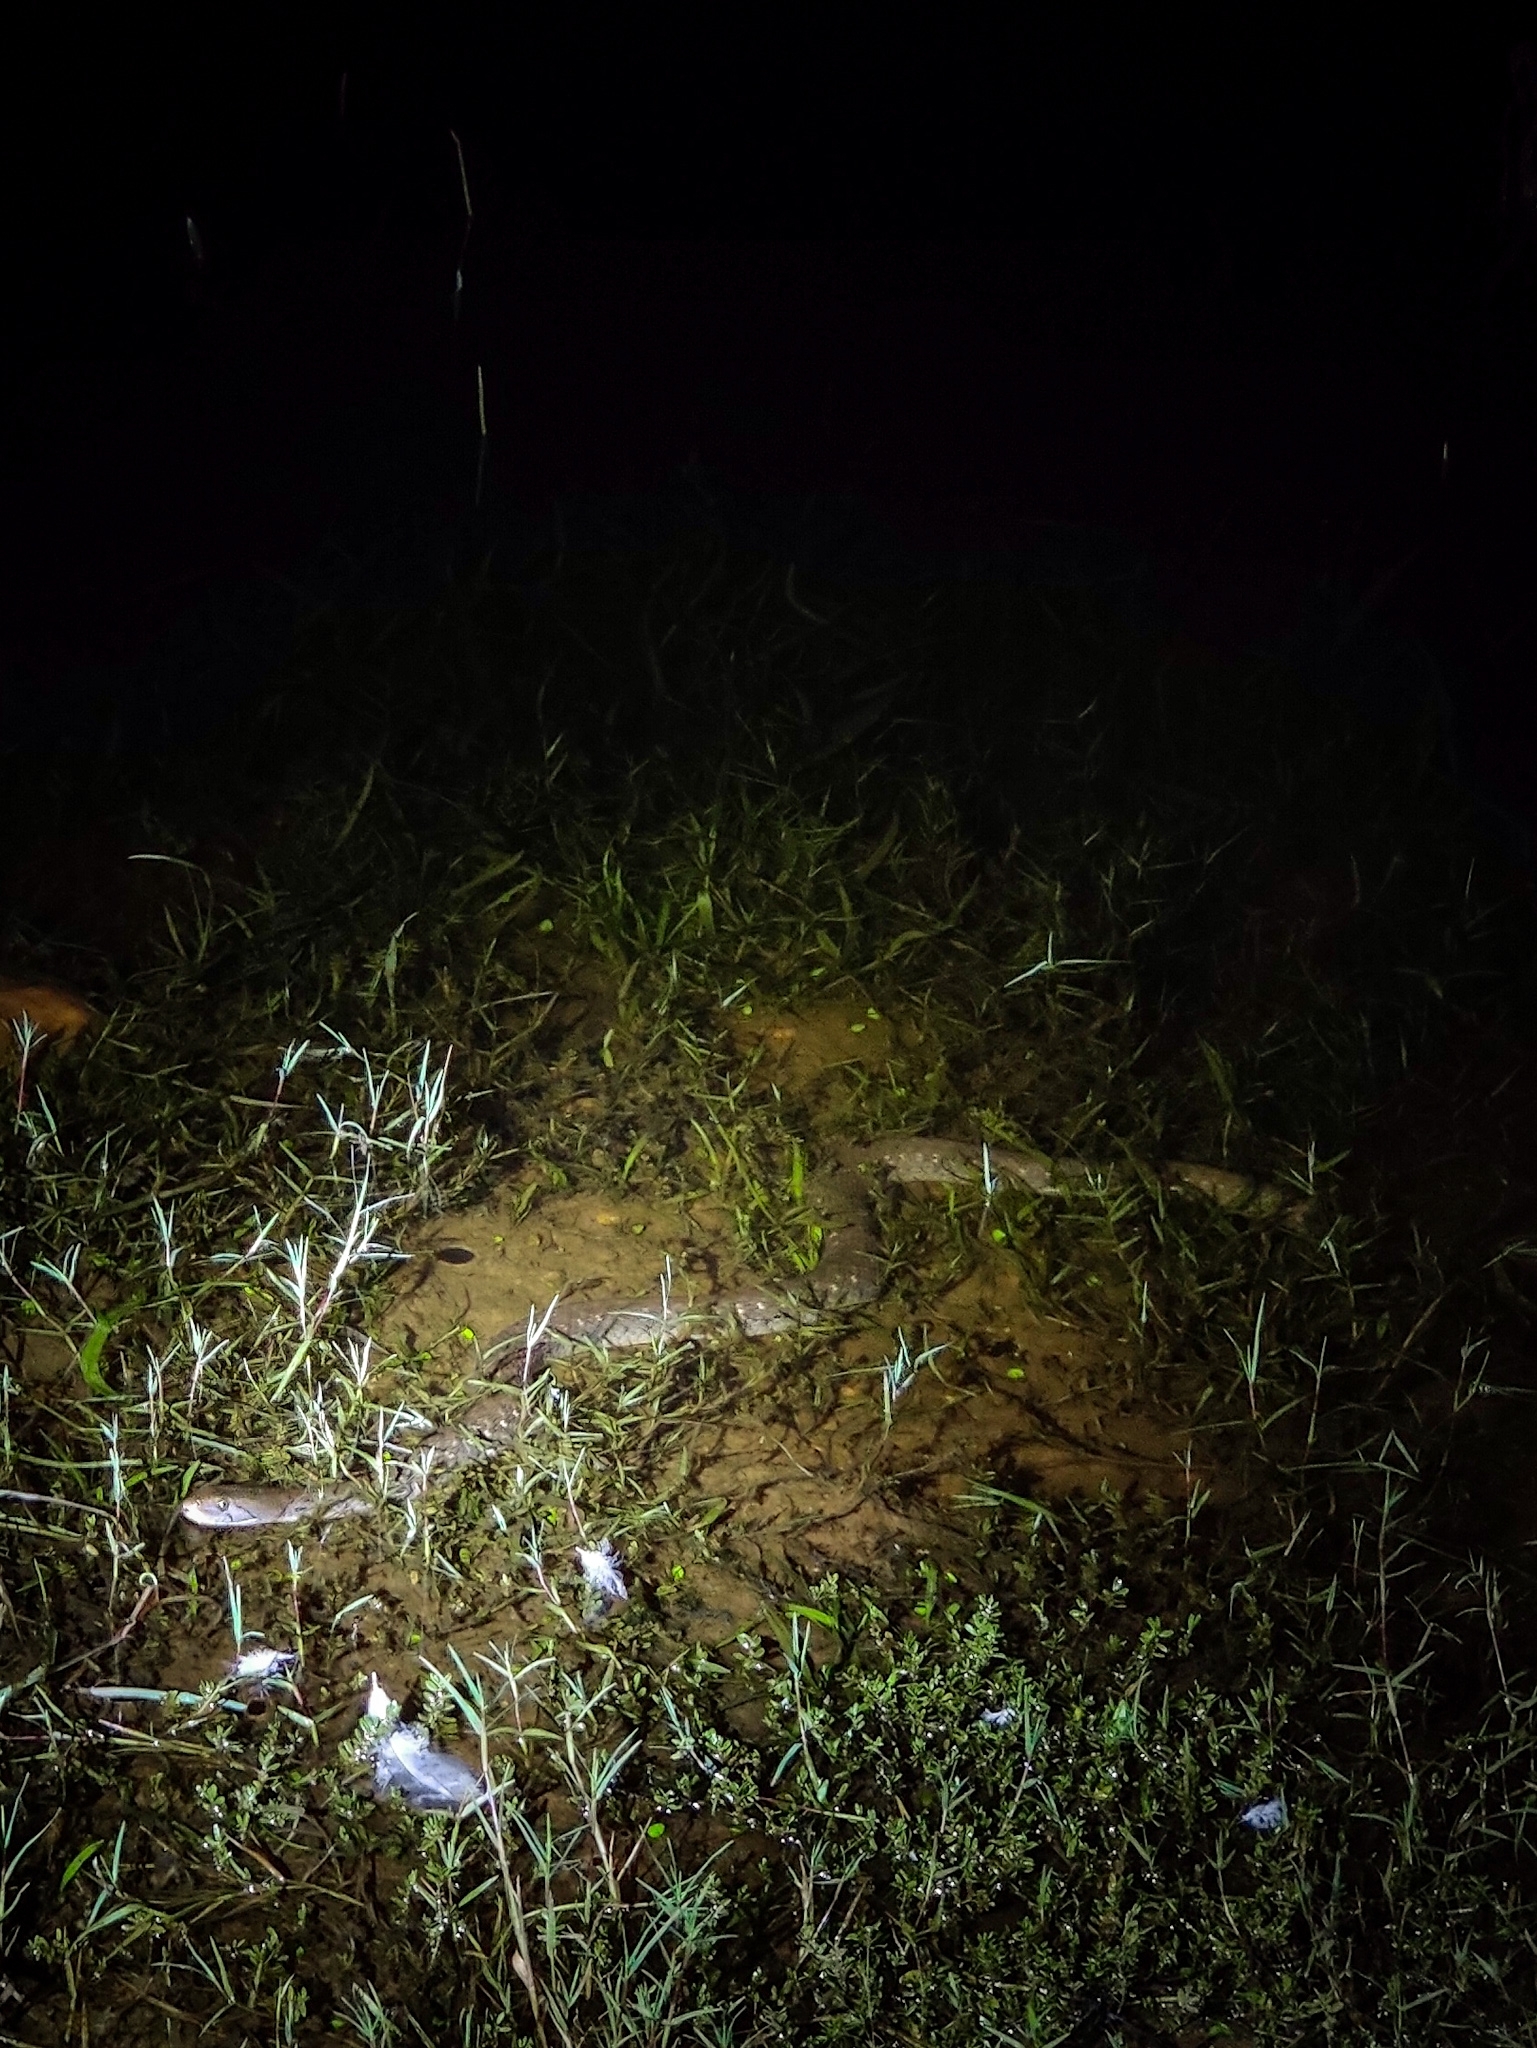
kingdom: Animalia
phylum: Chordata
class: Squamata
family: Colubridae
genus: Fowlea
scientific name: Fowlea piscator
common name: Asiatic water snake
